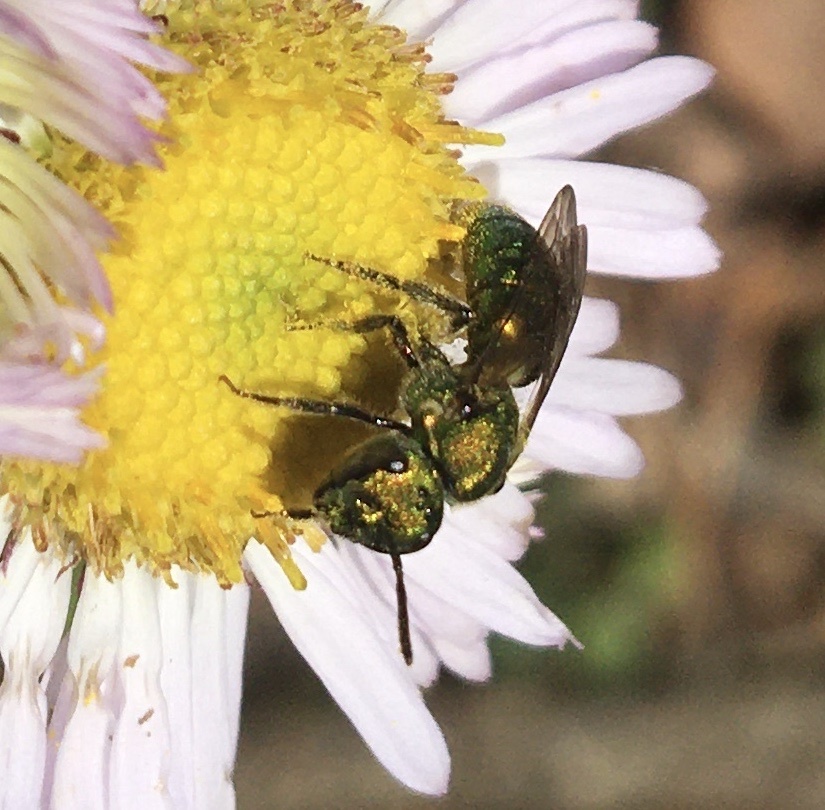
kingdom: Animalia
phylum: Arthropoda
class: Insecta
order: Hymenoptera
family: Halictidae
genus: Augochlora
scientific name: Augochlora pura
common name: Pure green sweat bee
